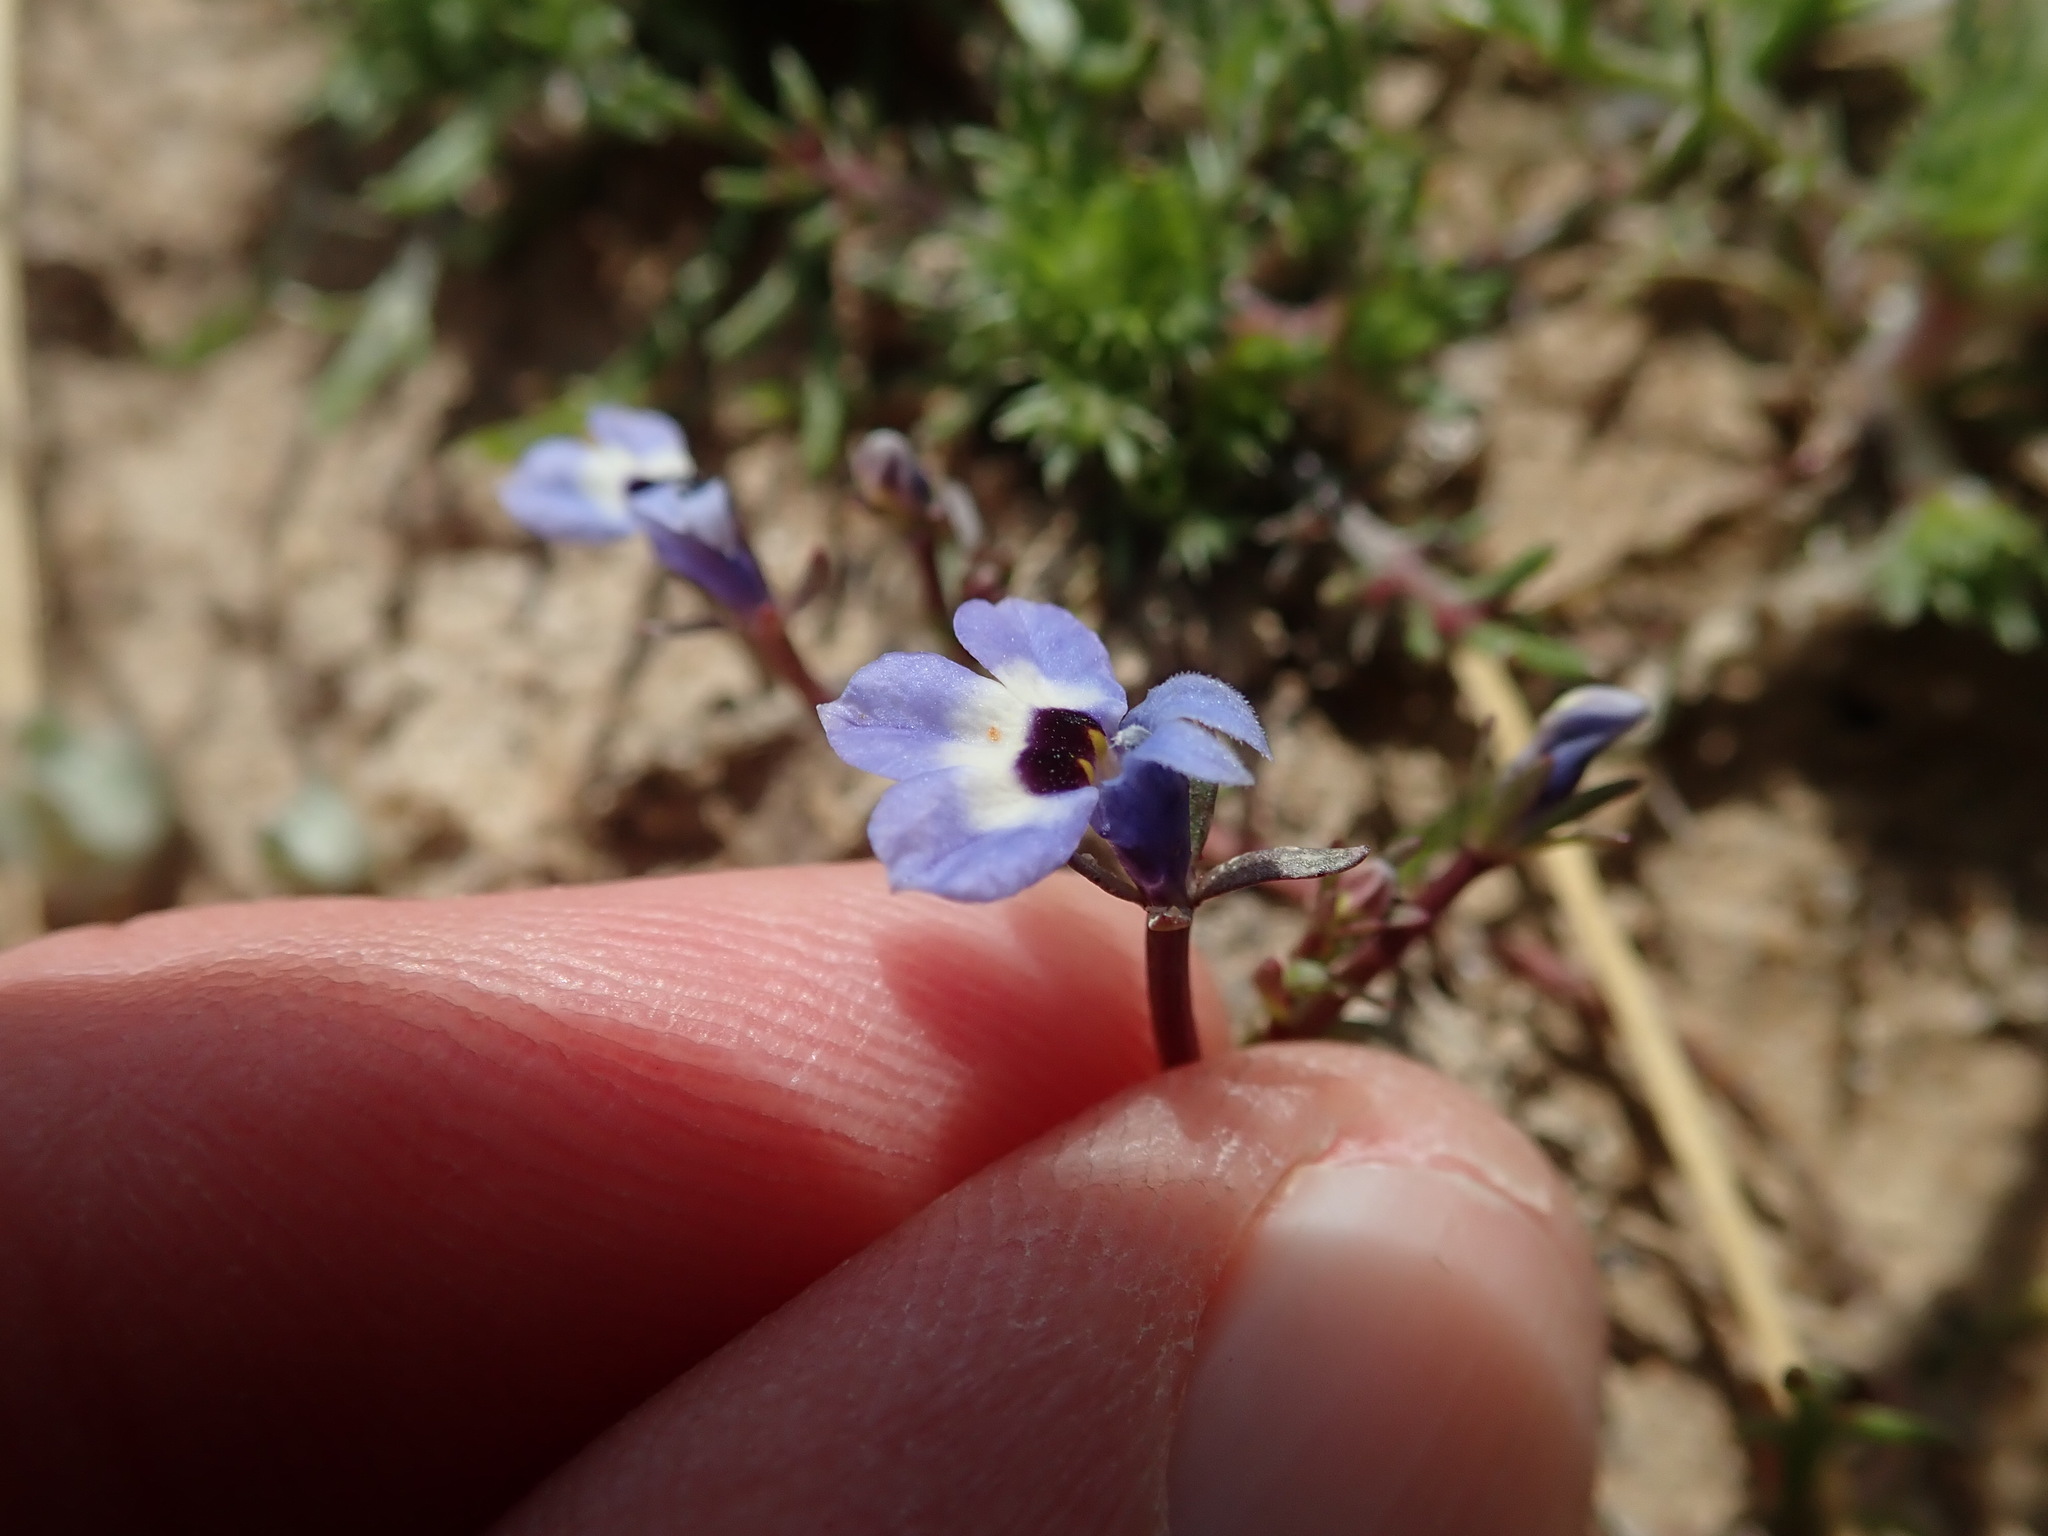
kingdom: Plantae
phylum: Tracheophyta
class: Magnoliopsida
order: Asterales
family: Campanulaceae
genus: Downingia
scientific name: Downingia concolor
